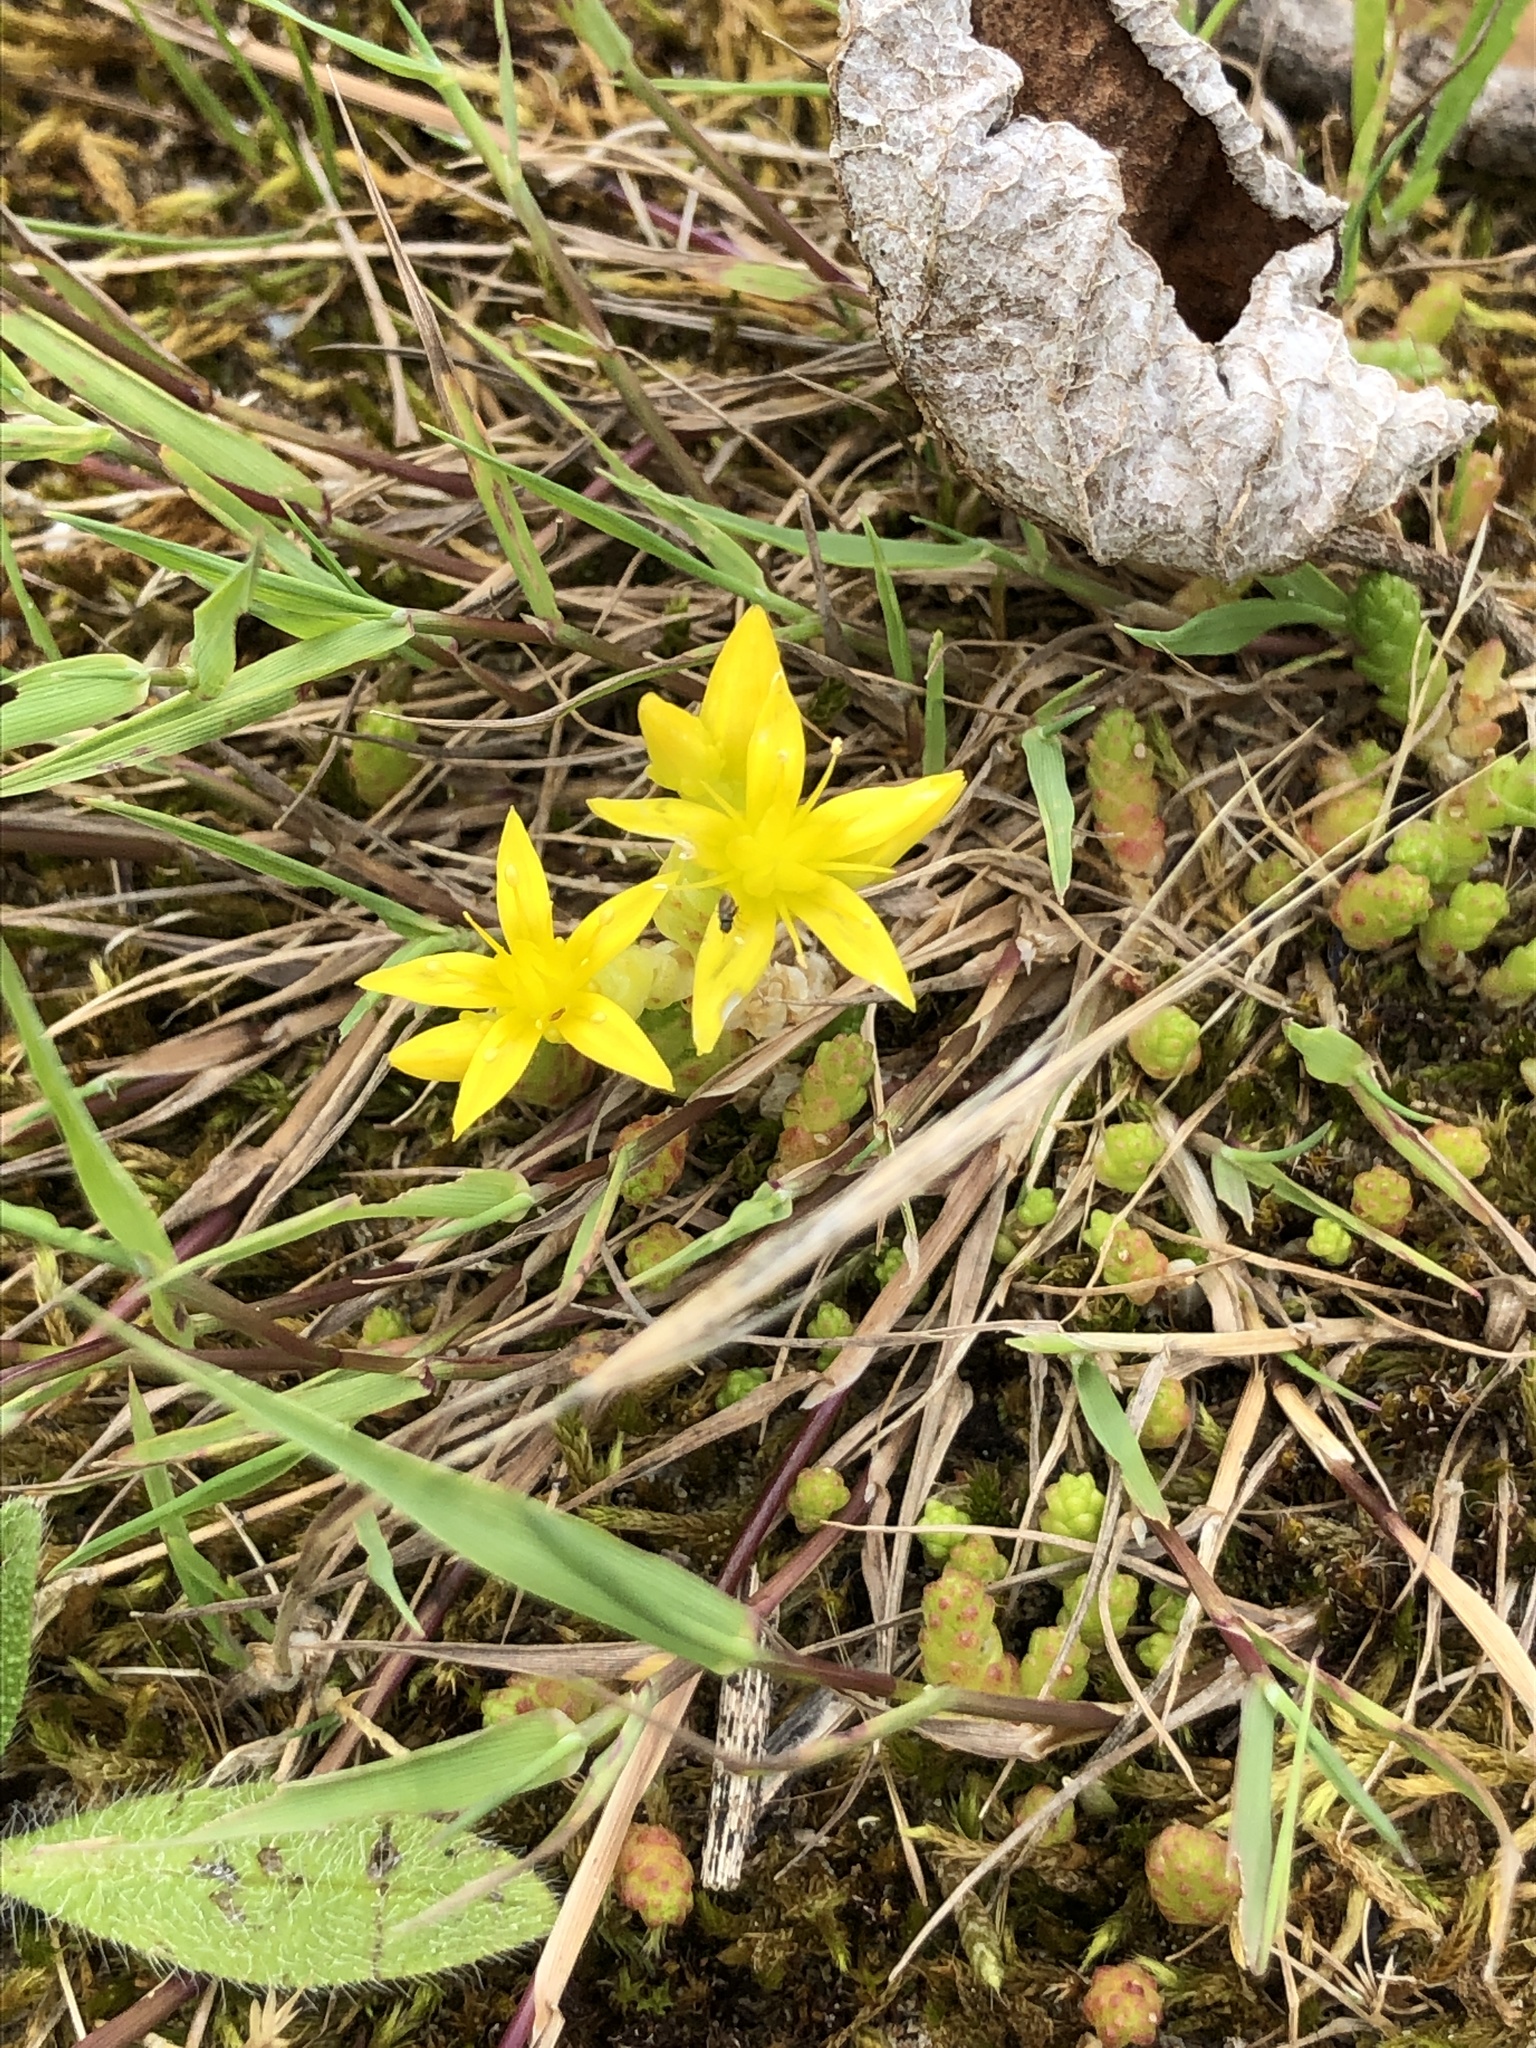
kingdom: Plantae
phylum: Tracheophyta
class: Magnoliopsida
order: Saxifragales
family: Crassulaceae
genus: Sedum
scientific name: Sedum acre
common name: Biting stonecrop
